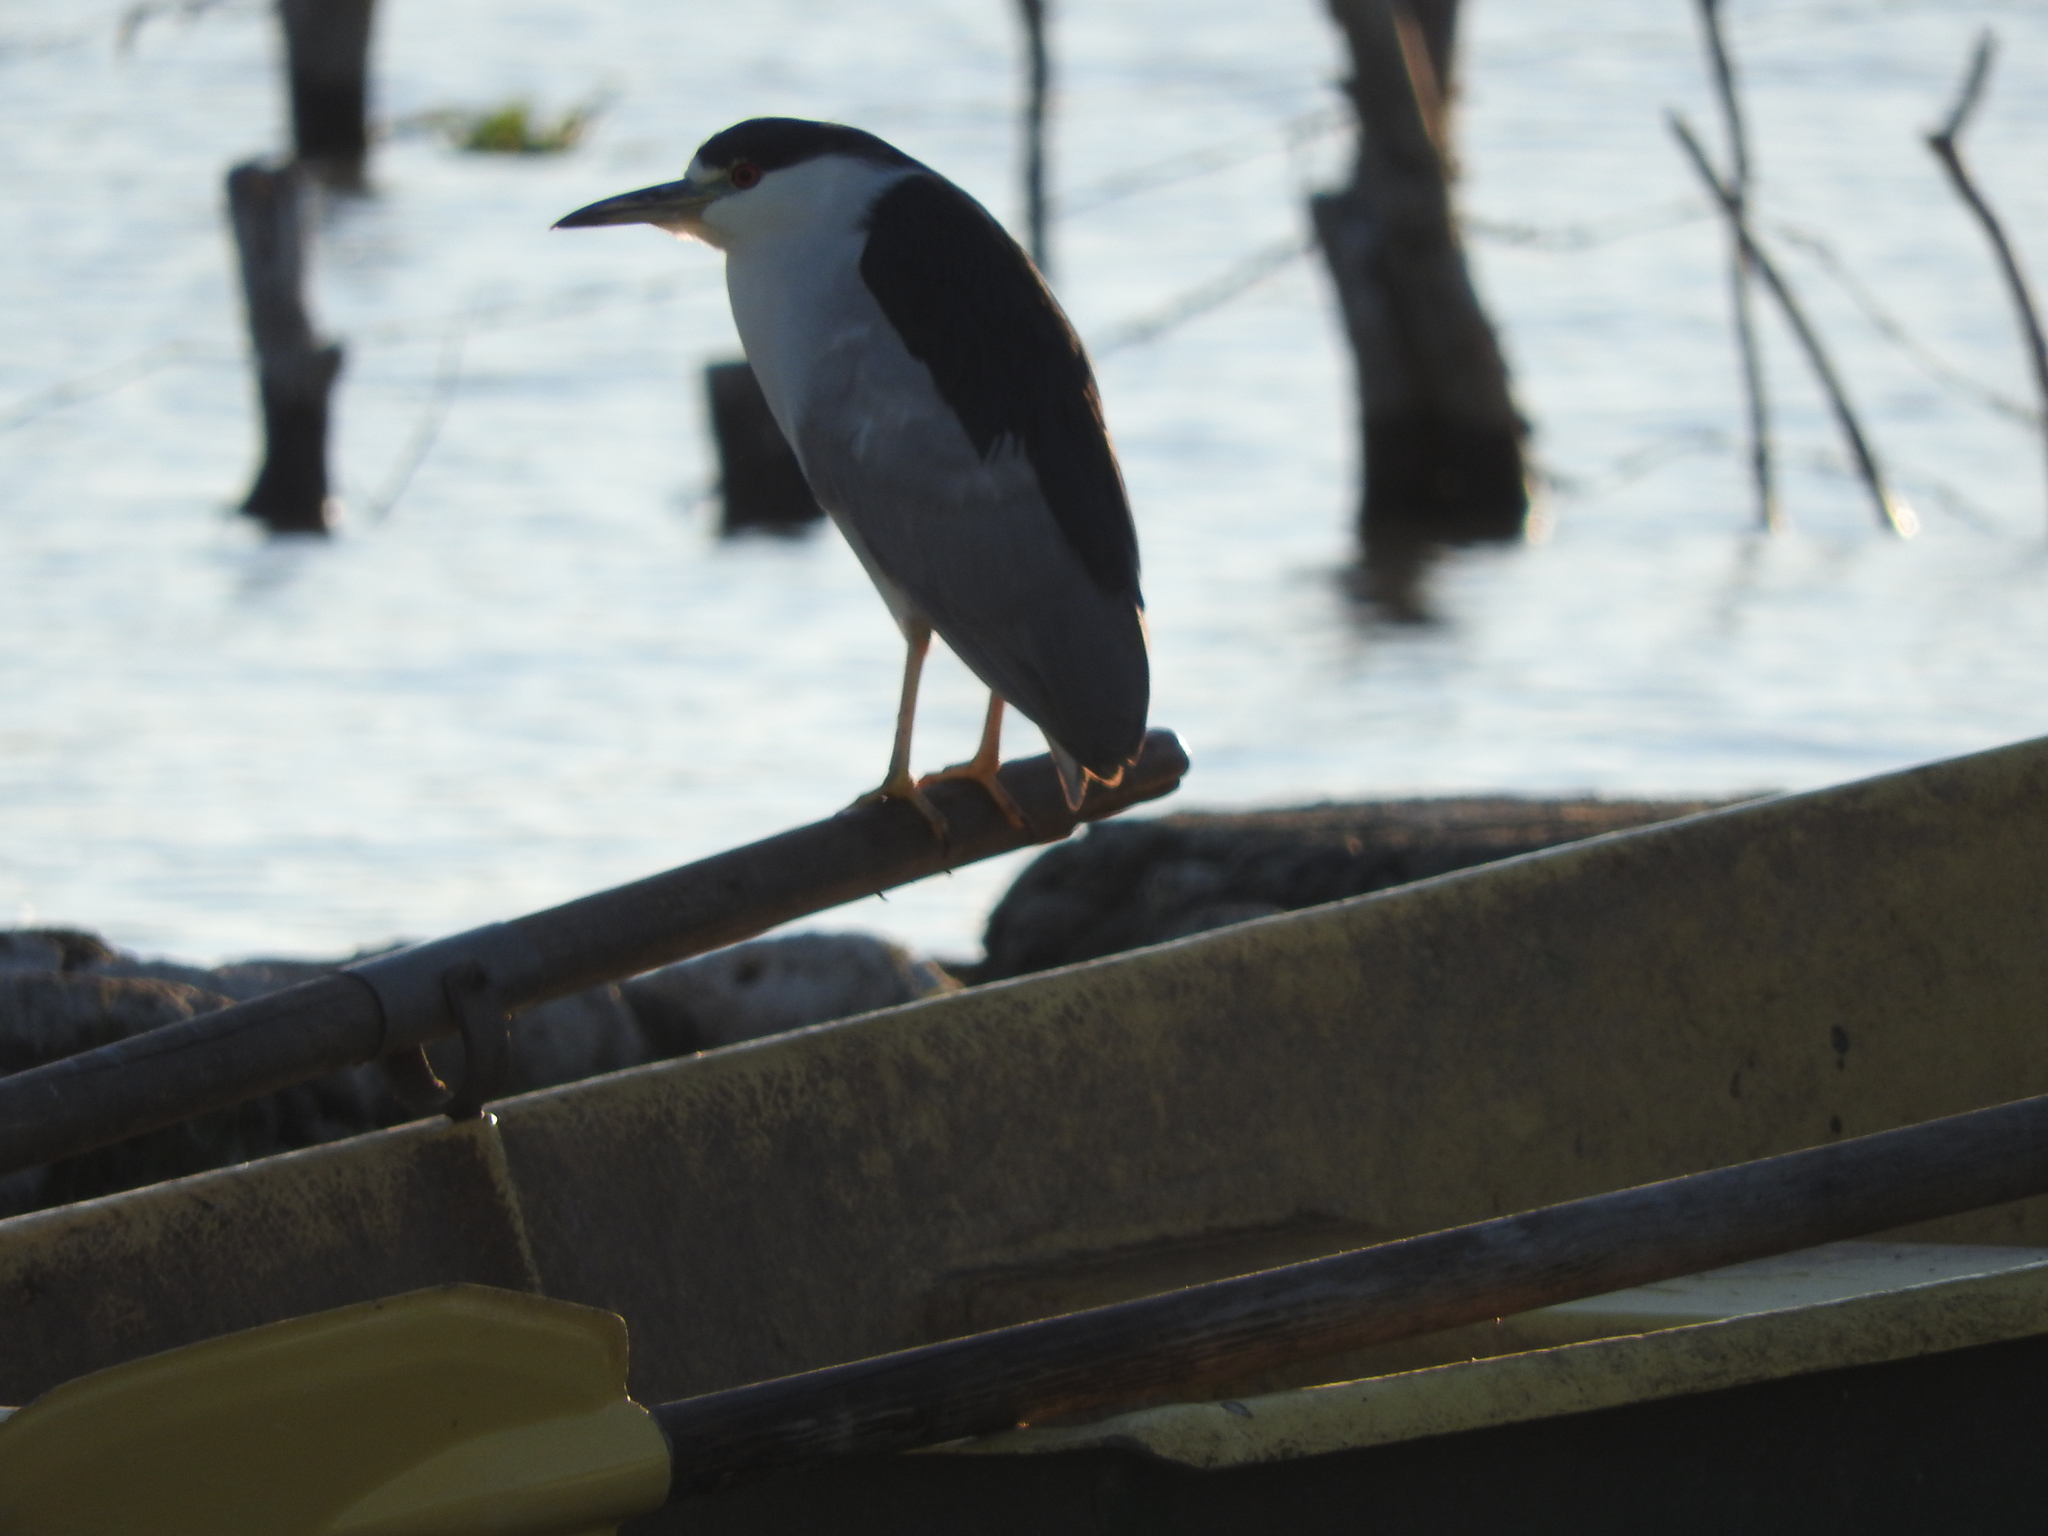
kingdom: Animalia
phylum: Chordata
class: Aves
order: Pelecaniformes
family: Ardeidae
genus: Nycticorax
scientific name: Nycticorax nycticorax
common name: Black-crowned night heron
